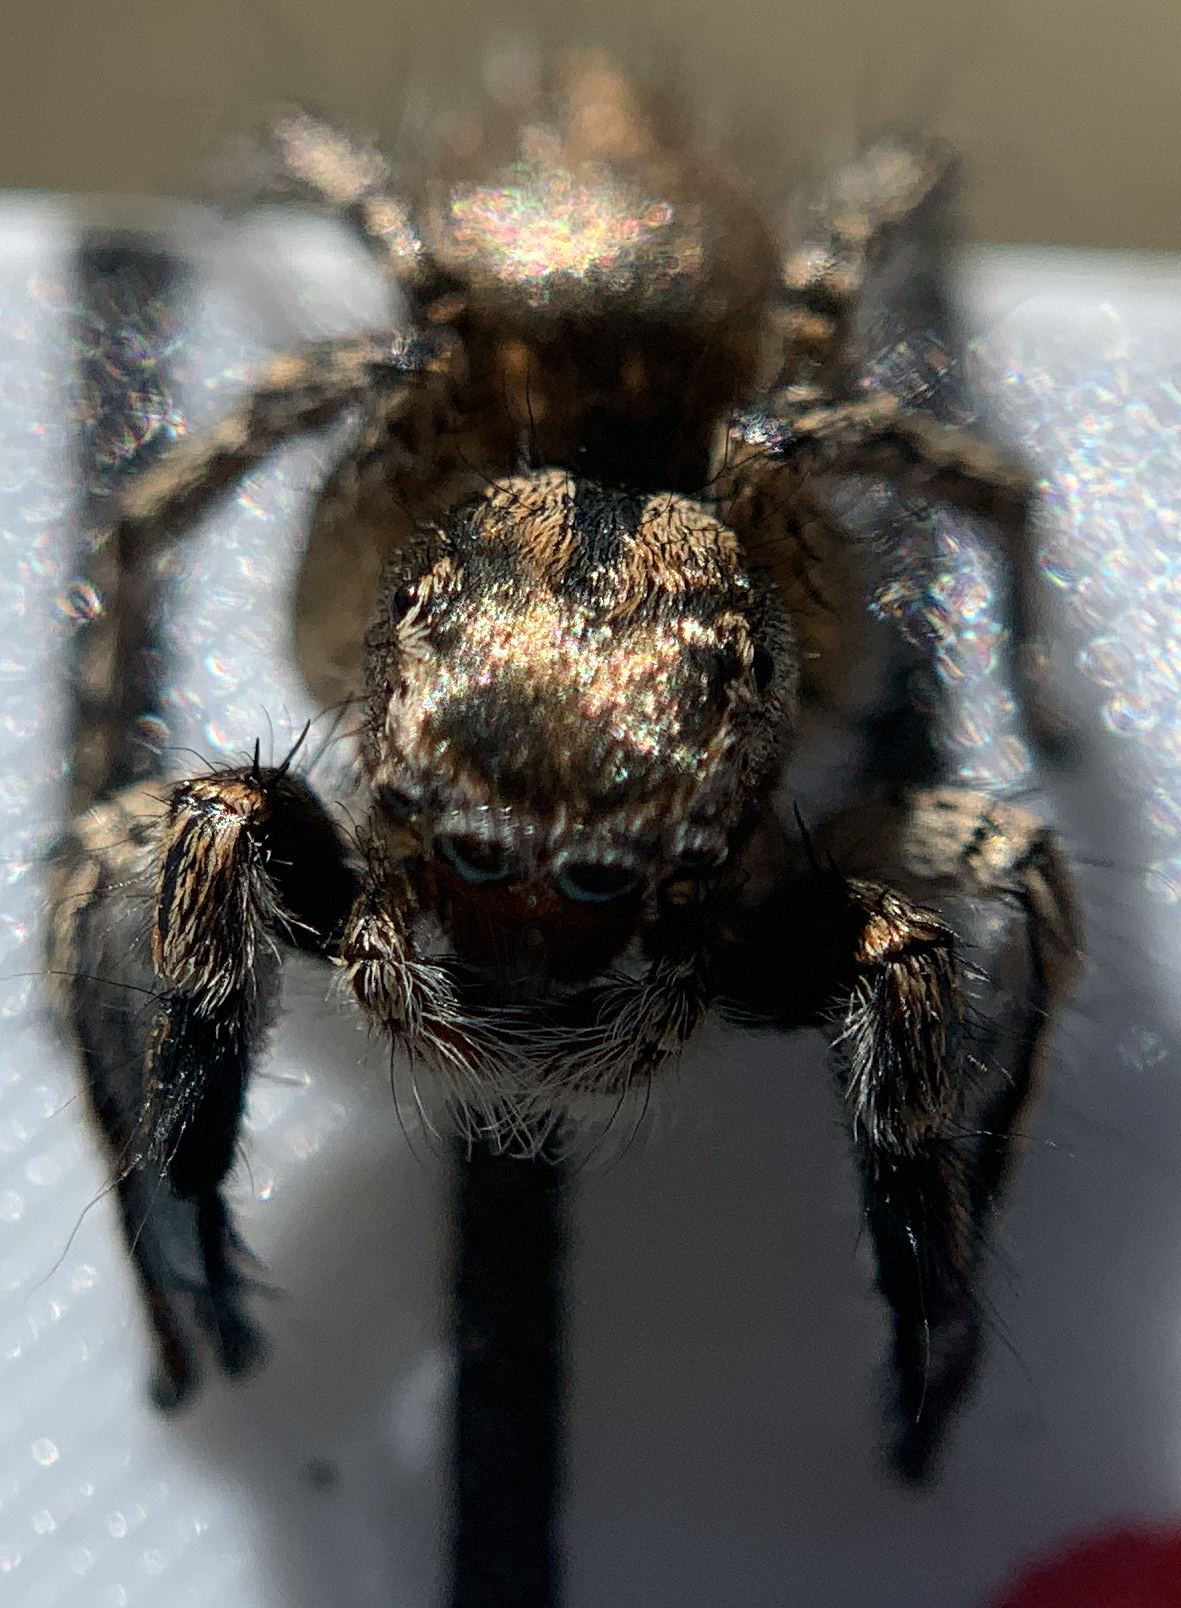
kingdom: Animalia
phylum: Arthropoda
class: Arachnida
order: Araneae
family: Salticidae
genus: Habronattus
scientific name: Habronattus hirsutus
